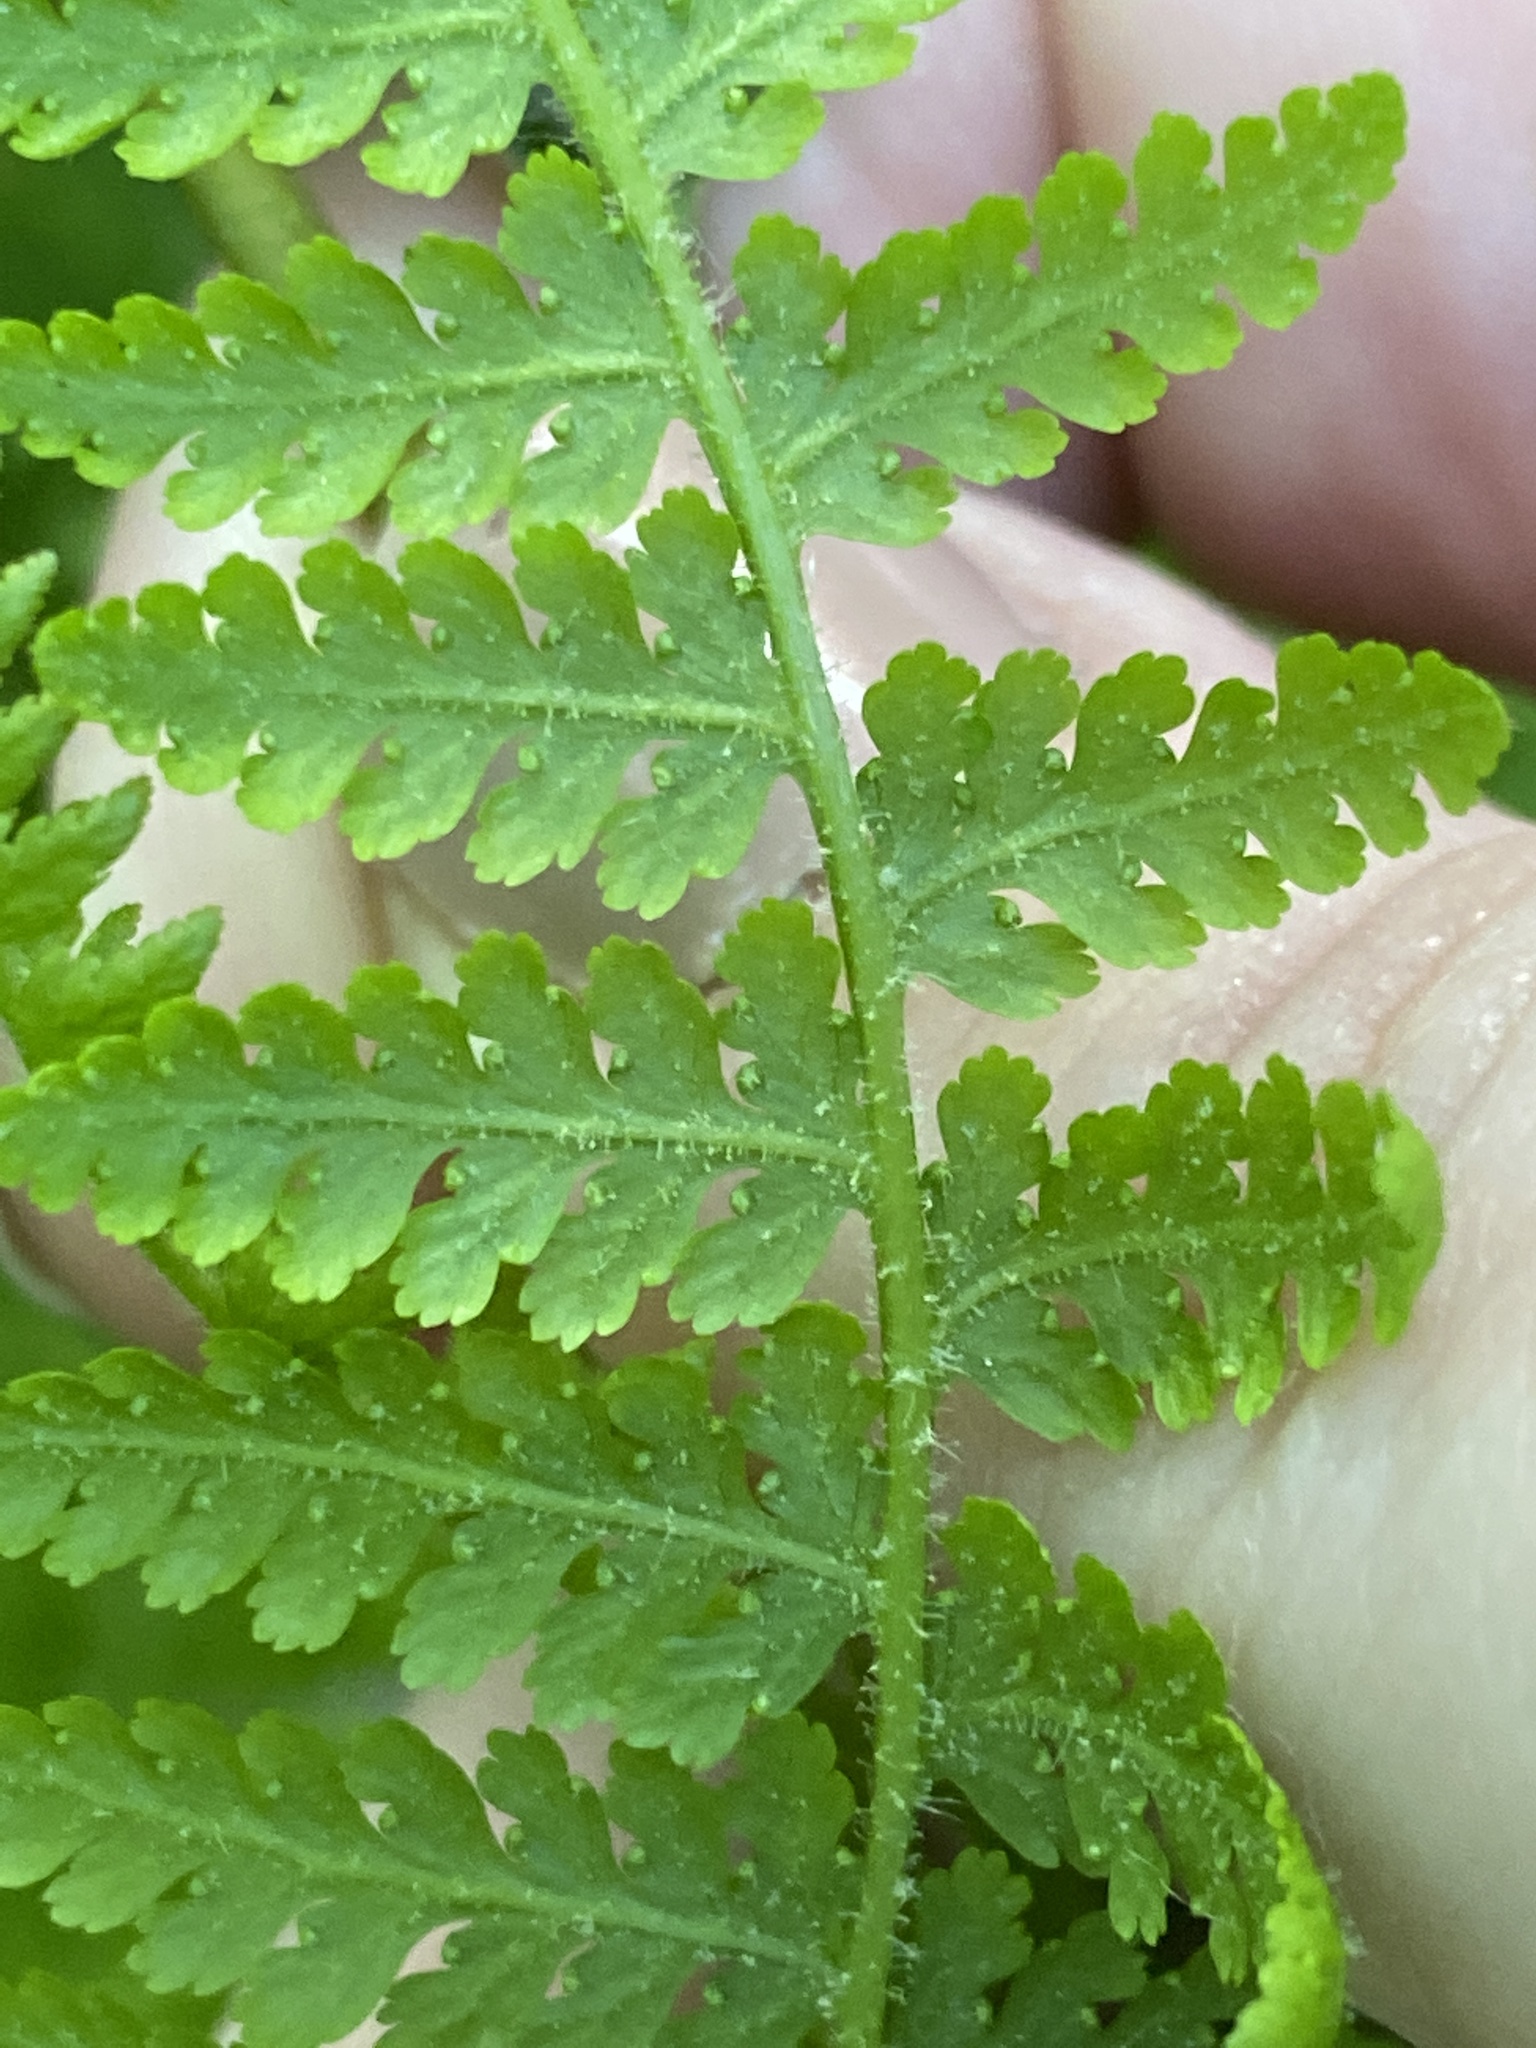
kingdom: Plantae
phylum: Tracheophyta
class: Polypodiopsida
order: Polypodiales
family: Dennstaedtiaceae
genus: Sitobolium
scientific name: Sitobolium punctilobum
